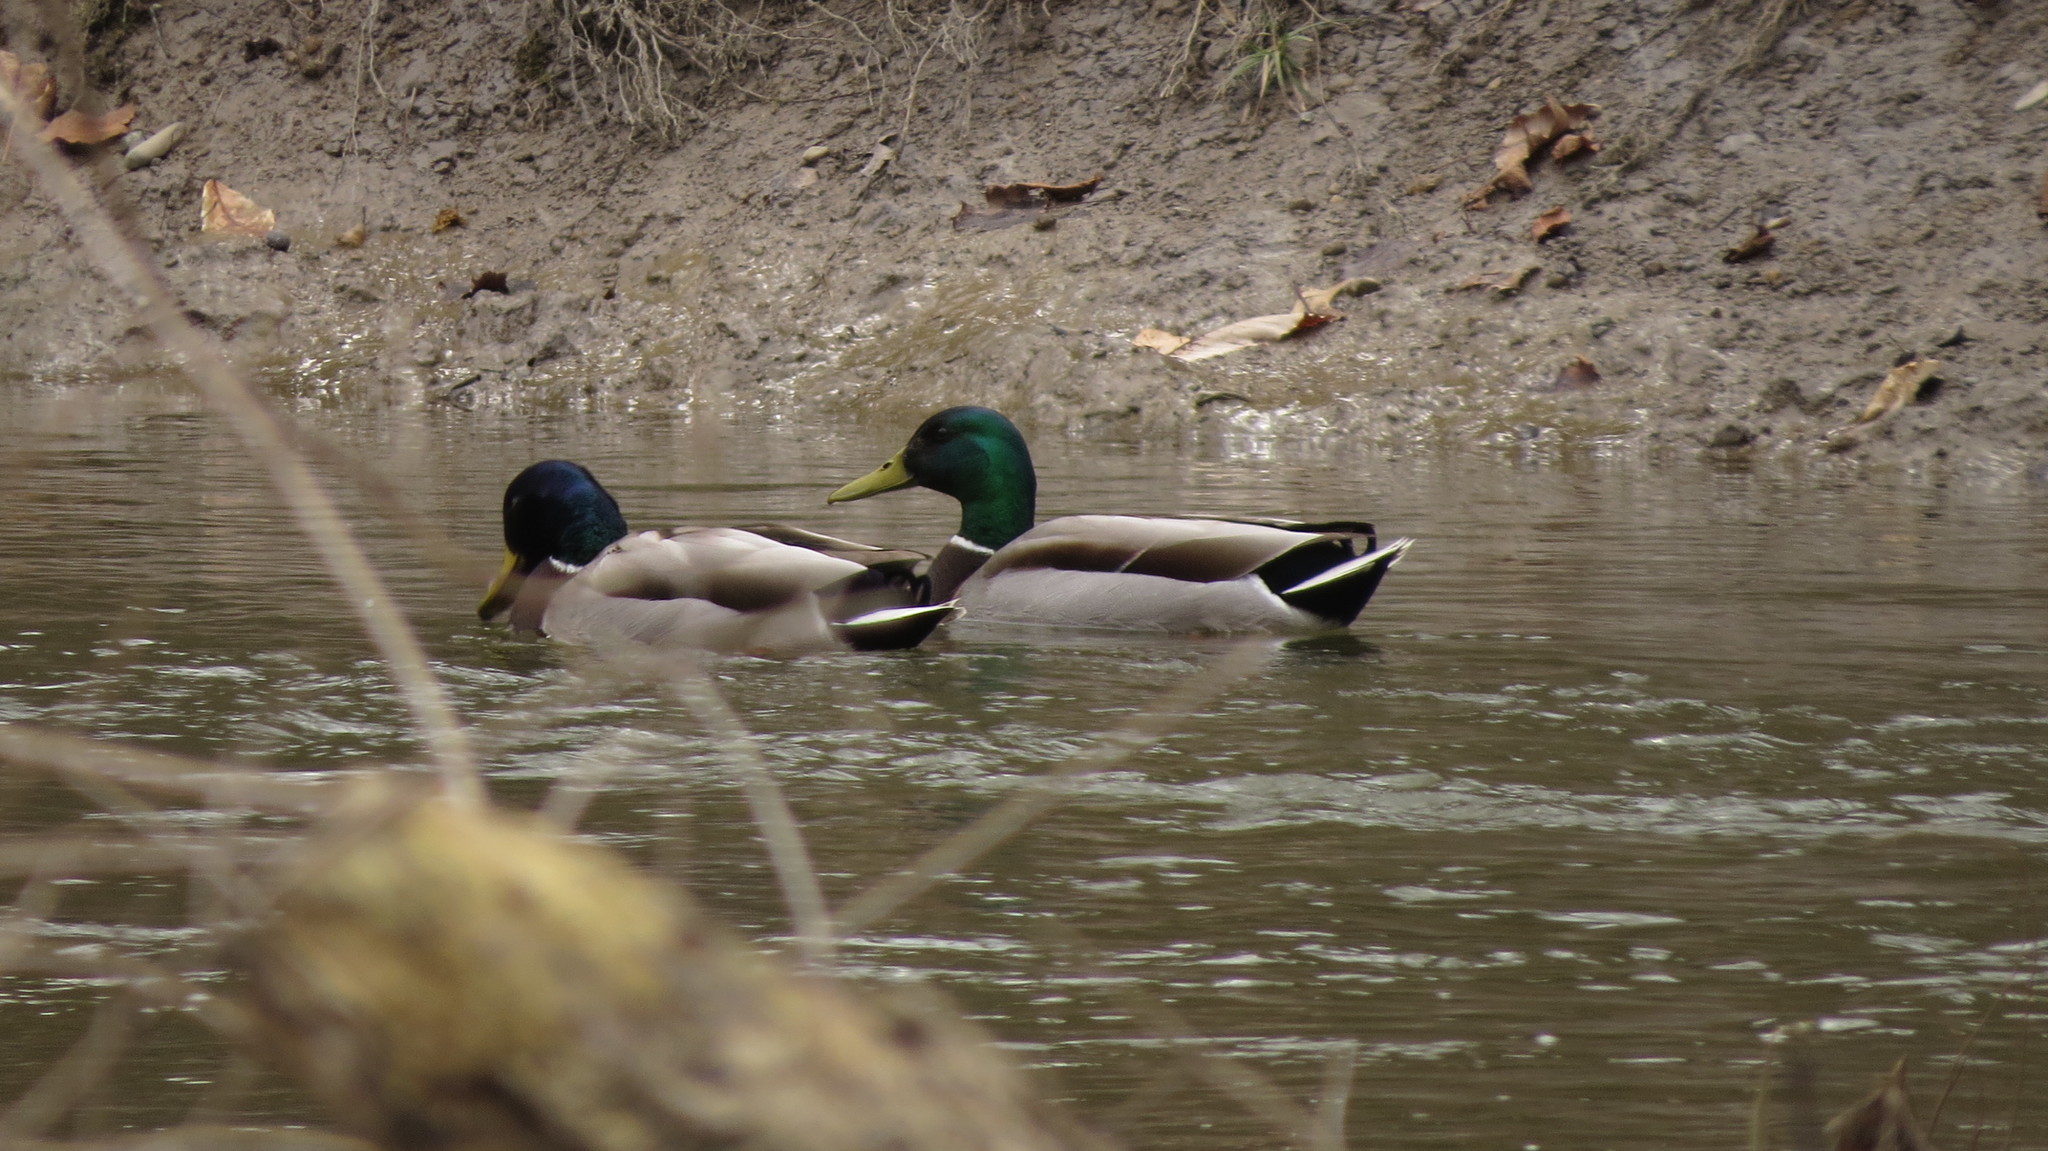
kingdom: Animalia
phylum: Chordata
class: Aves
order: Anseriformes
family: Anatidae
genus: Anas
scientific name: Anas platyrhynchos
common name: Mallard
